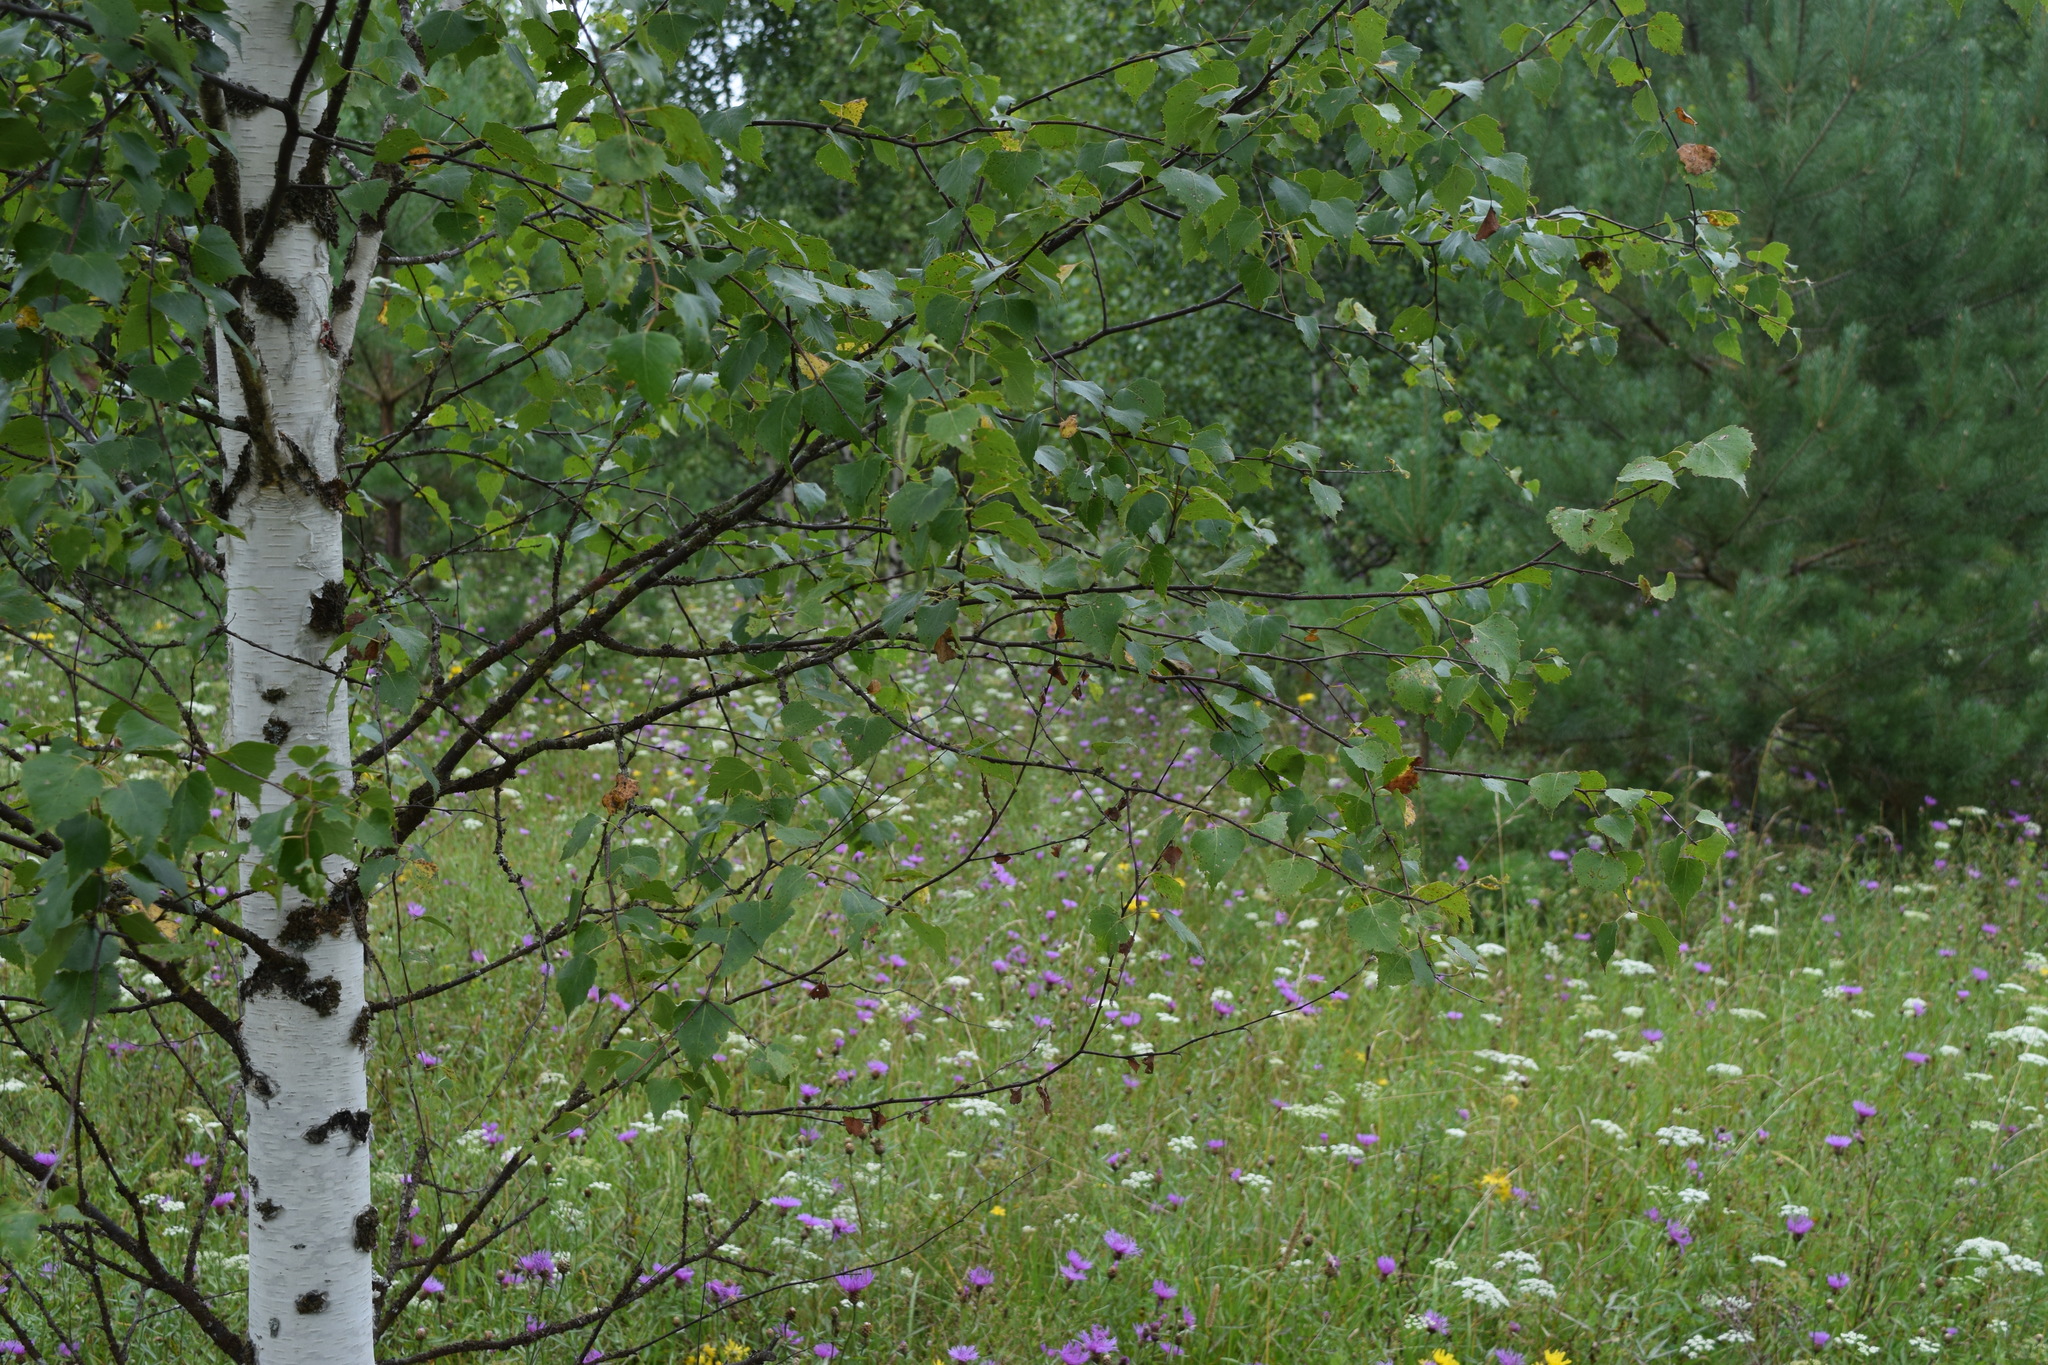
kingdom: Plantae
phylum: Tracheophyta
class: Magnoliopsida
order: Fagales
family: Betulaceae
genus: Betula
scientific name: Betula pendula
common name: Silver birch
